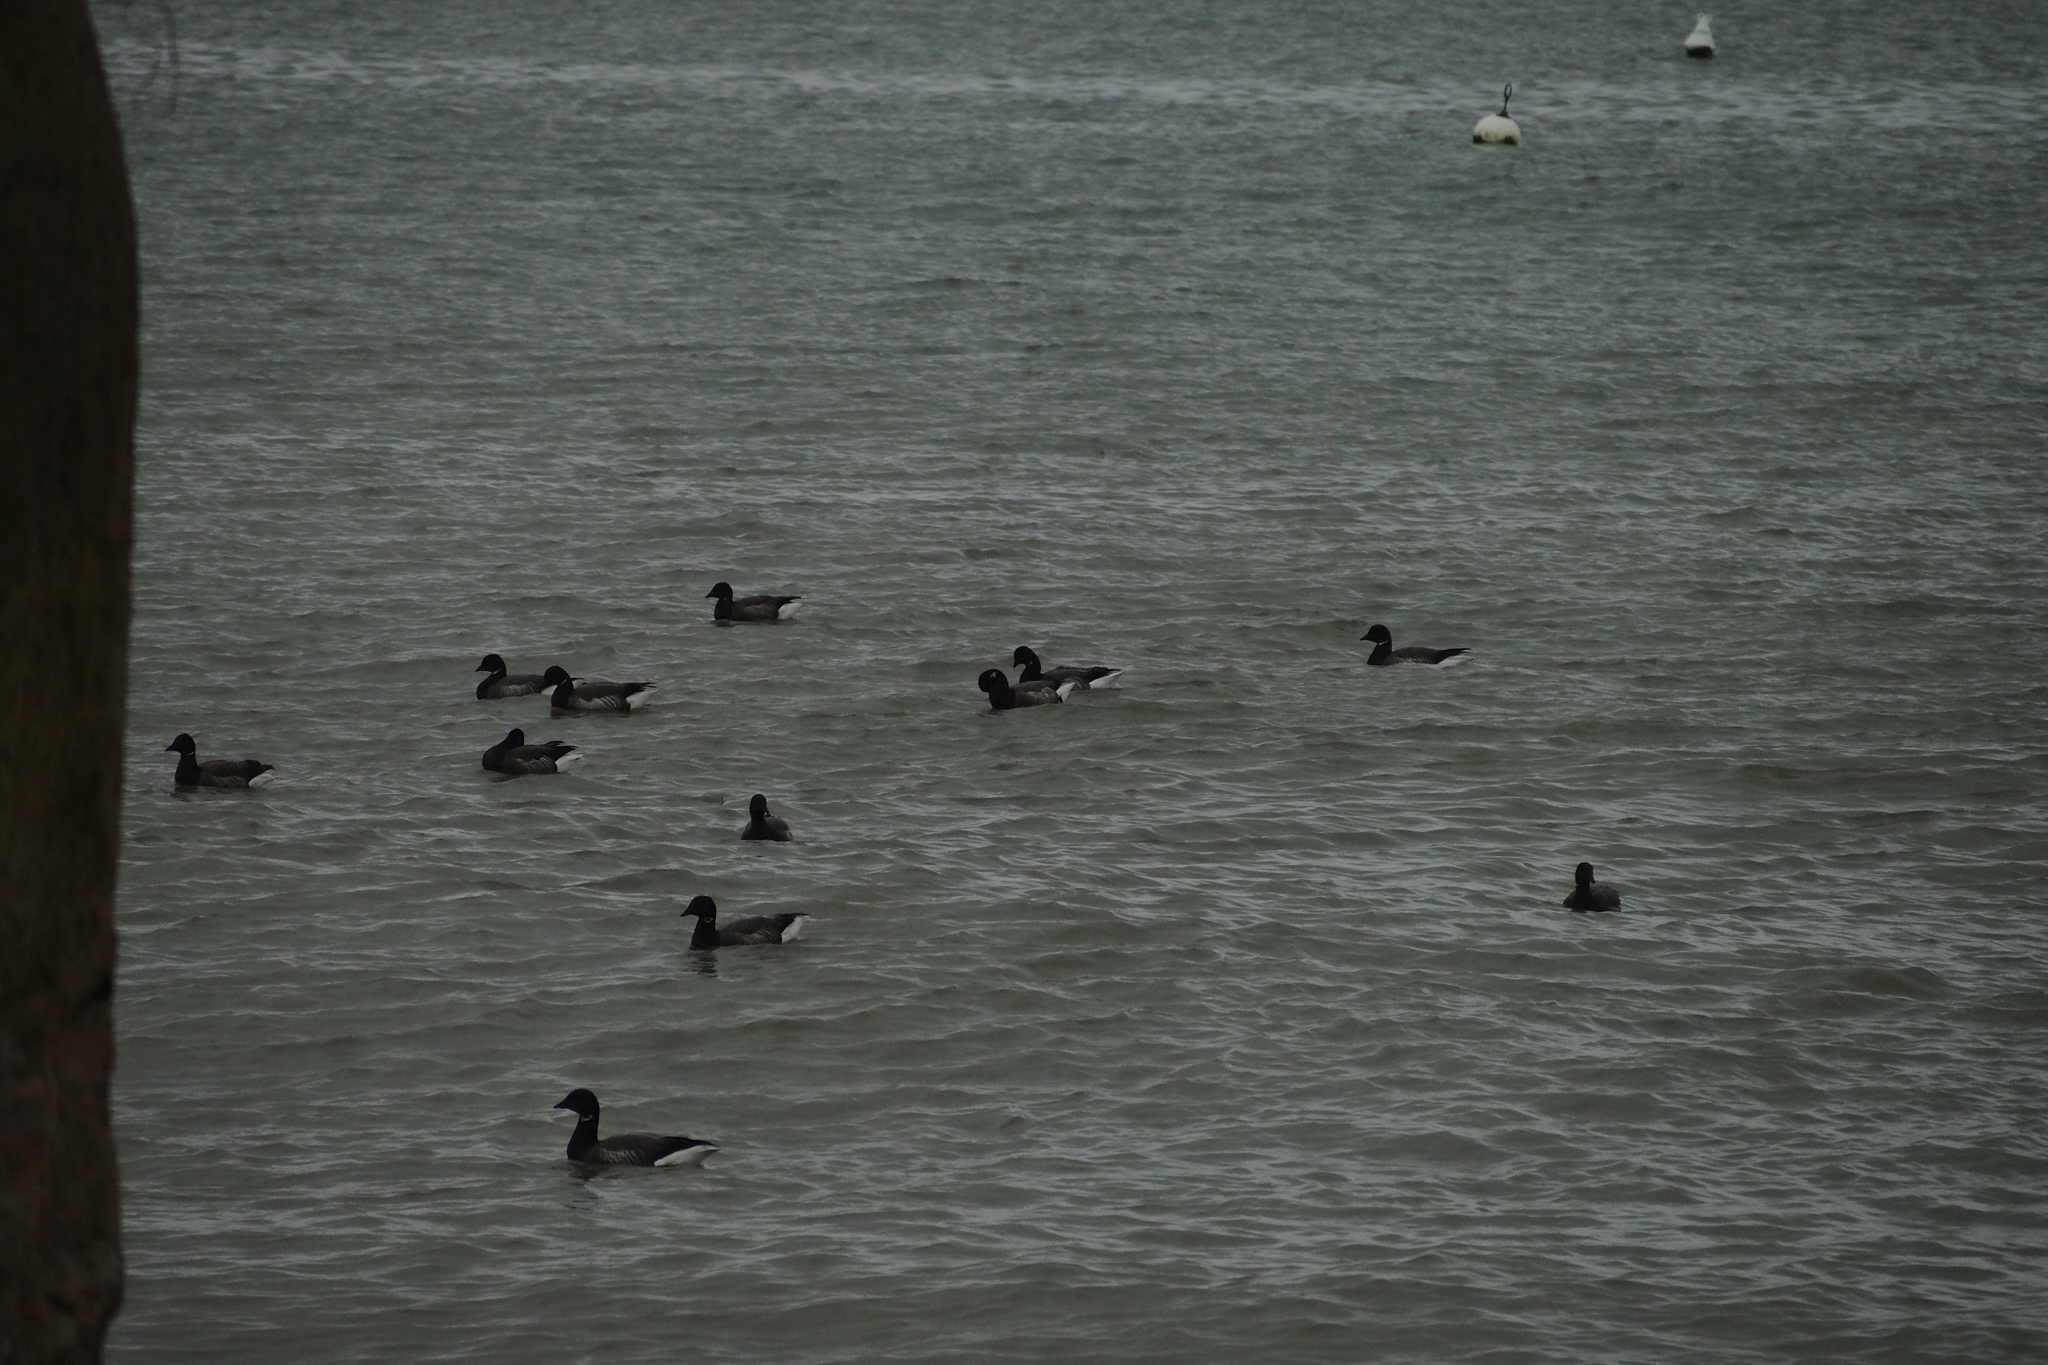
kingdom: Animalia
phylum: Chordata
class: Aves
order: Anseriformes
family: Anatidae
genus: Branta
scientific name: Branta bernicla
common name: Brant goose
